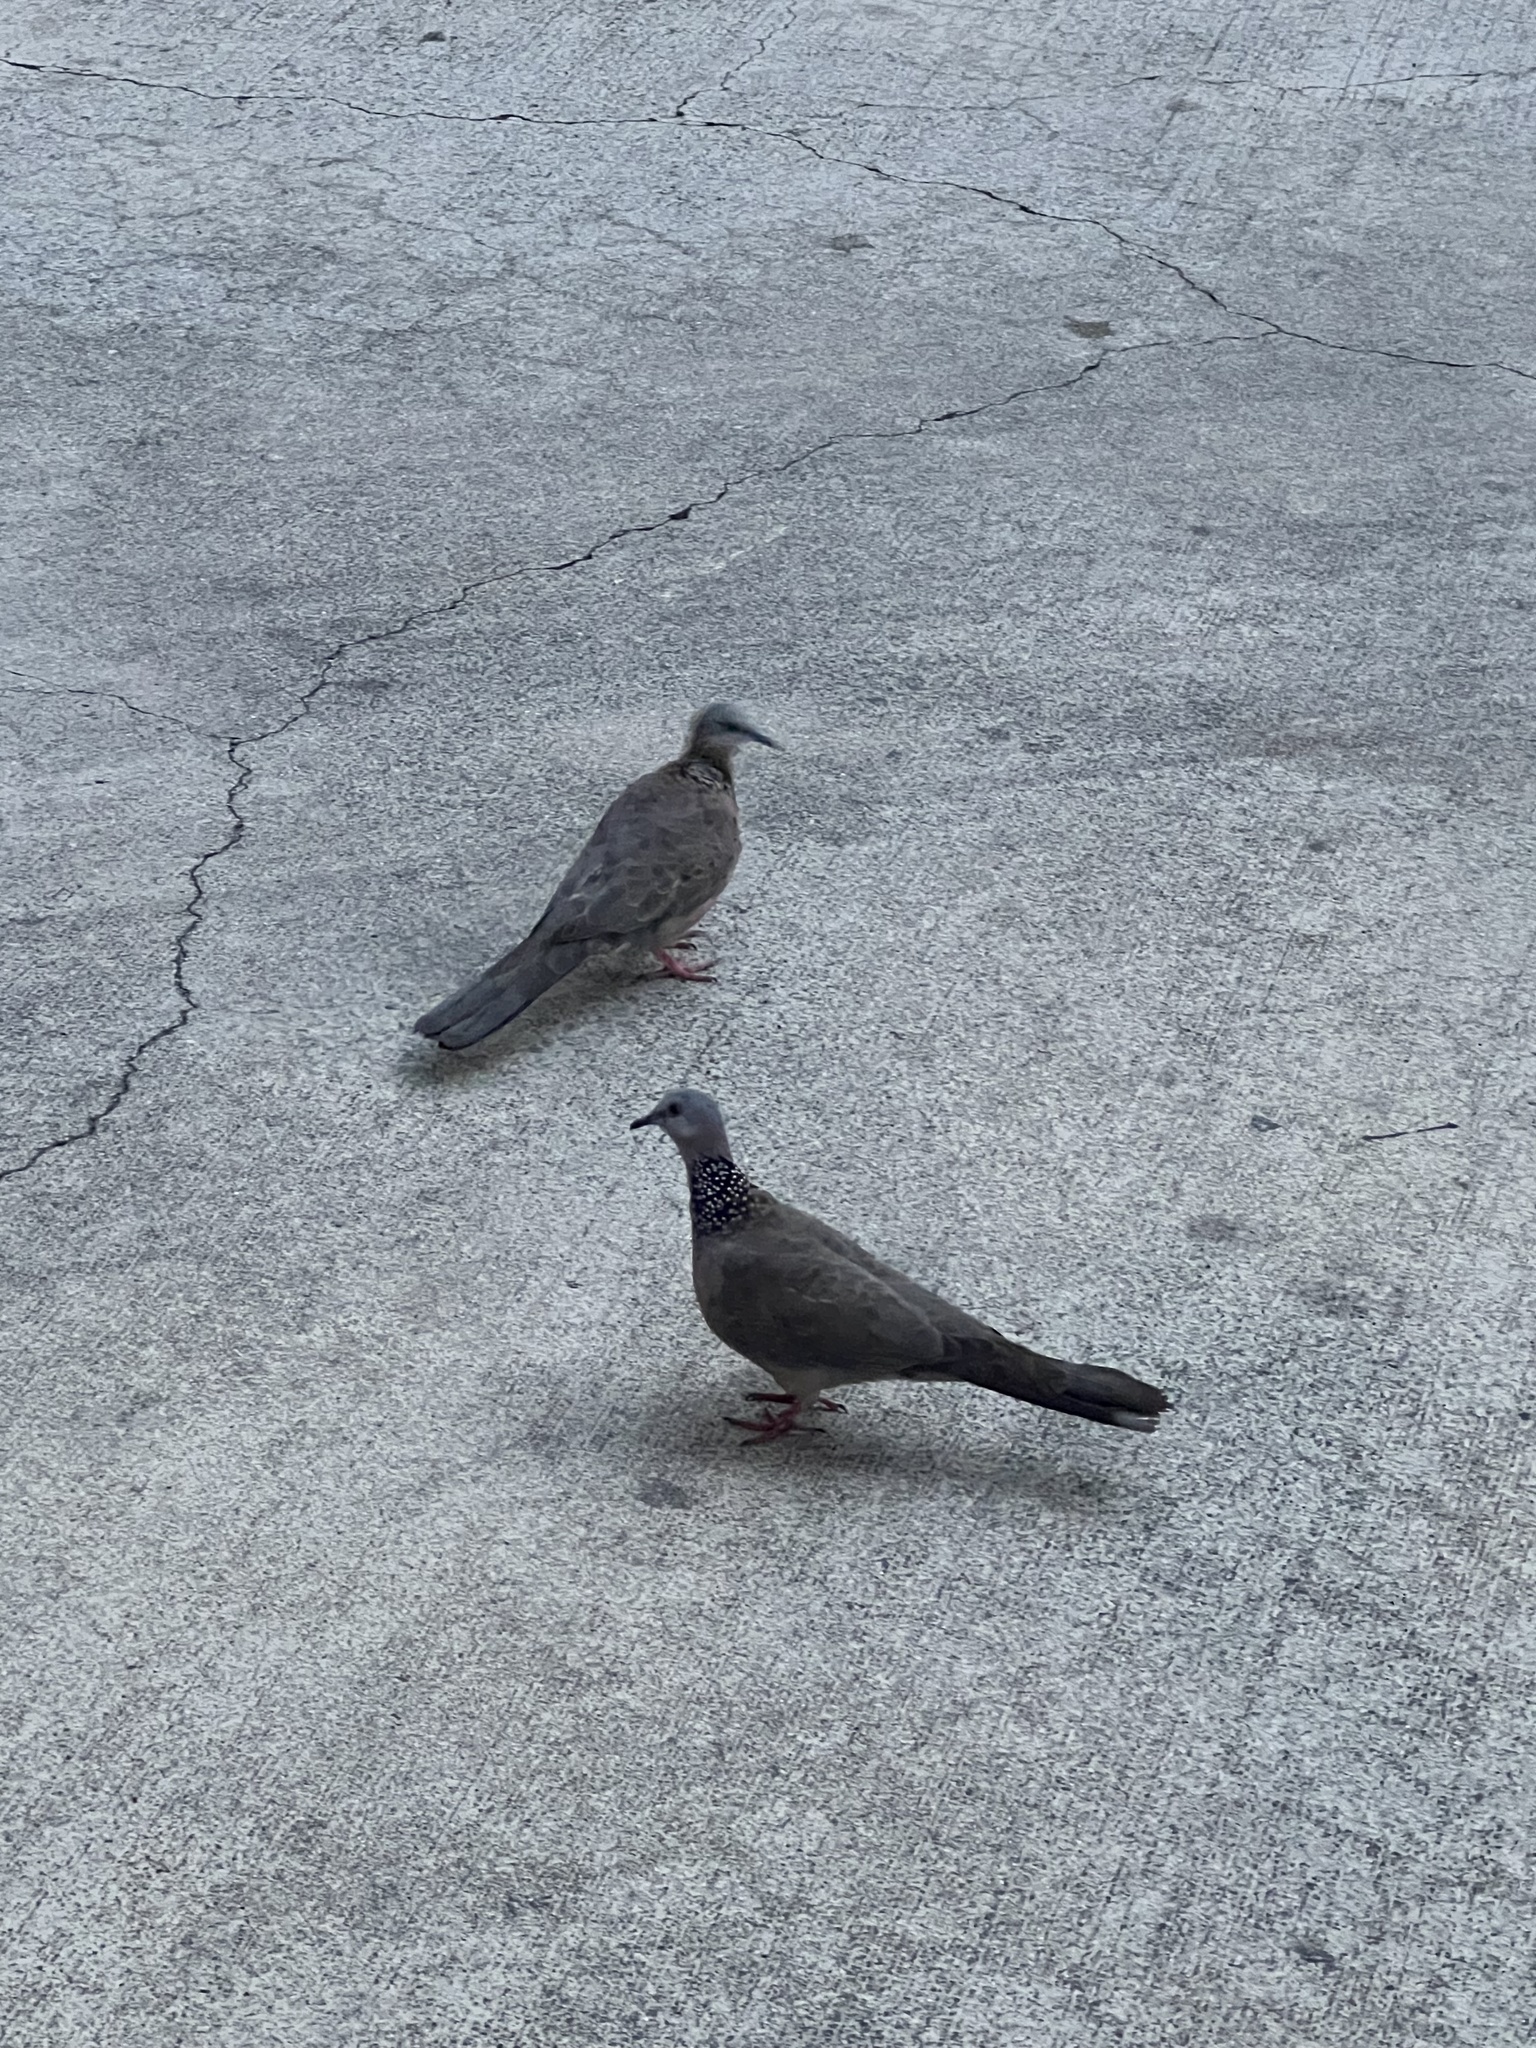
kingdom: Animalia
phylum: Chordata
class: Aves
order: Columbiformes
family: Columbidae
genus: Spilopelia
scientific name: Spilopelia chinensis
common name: Spotted dove
